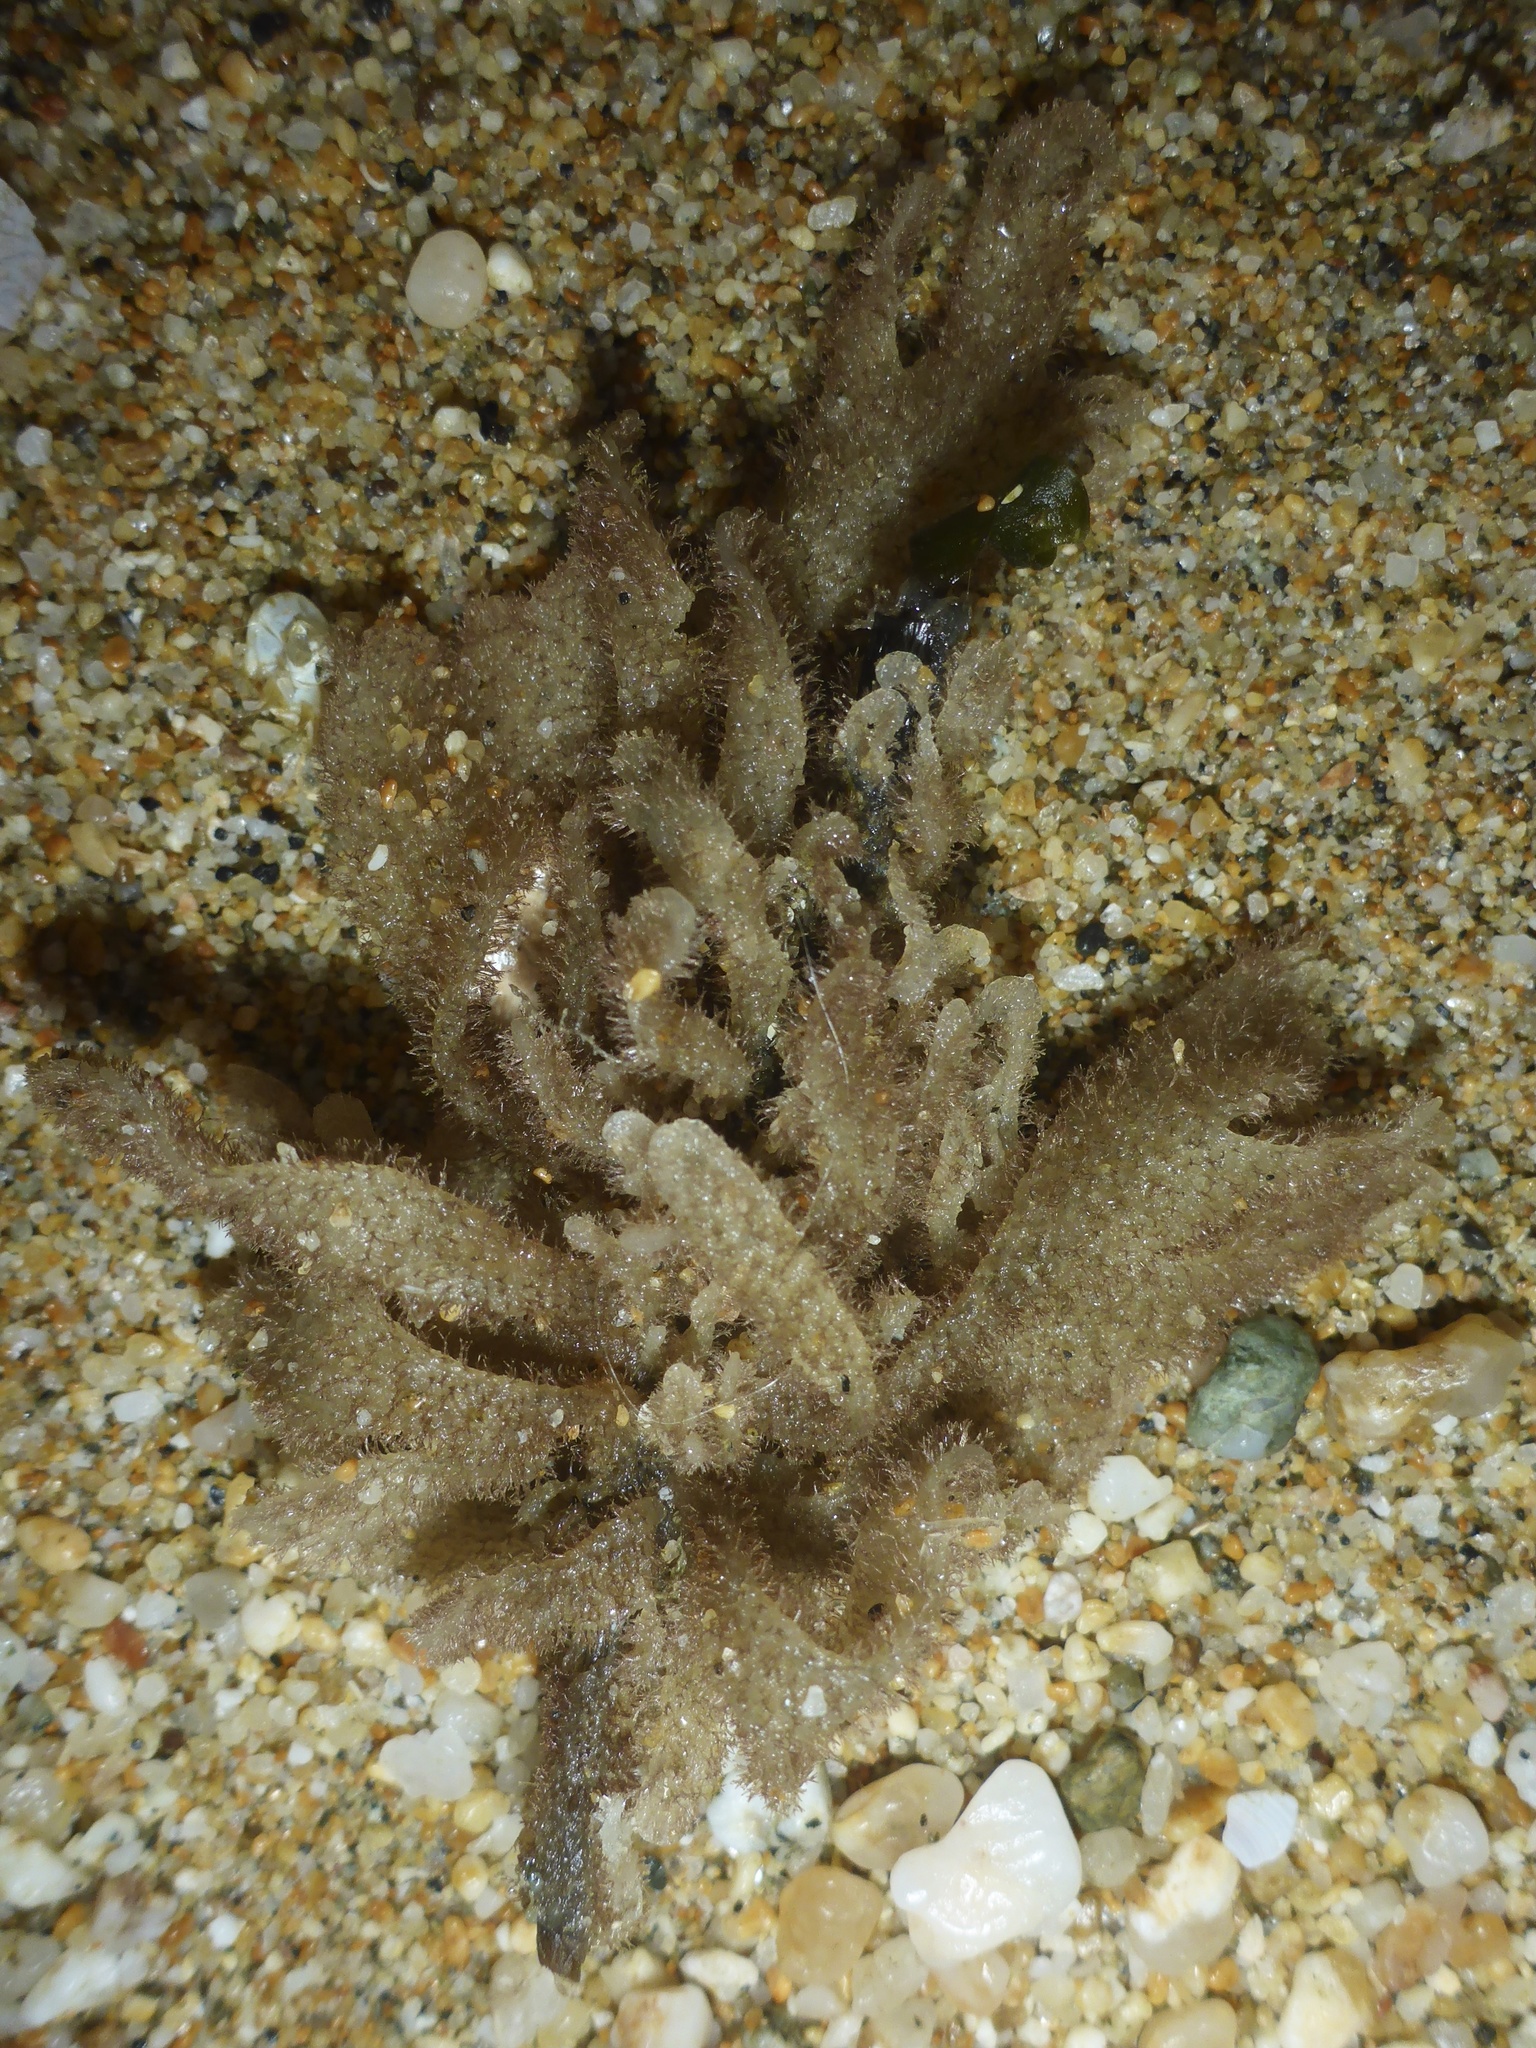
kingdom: Animalia
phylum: Bryozoa
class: Gymnolaemata
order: Ctenostomatida
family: Flustrellidridae
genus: Flustrellidra
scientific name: Flustrellidra corniculata
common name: Spiny leather bryozoan
